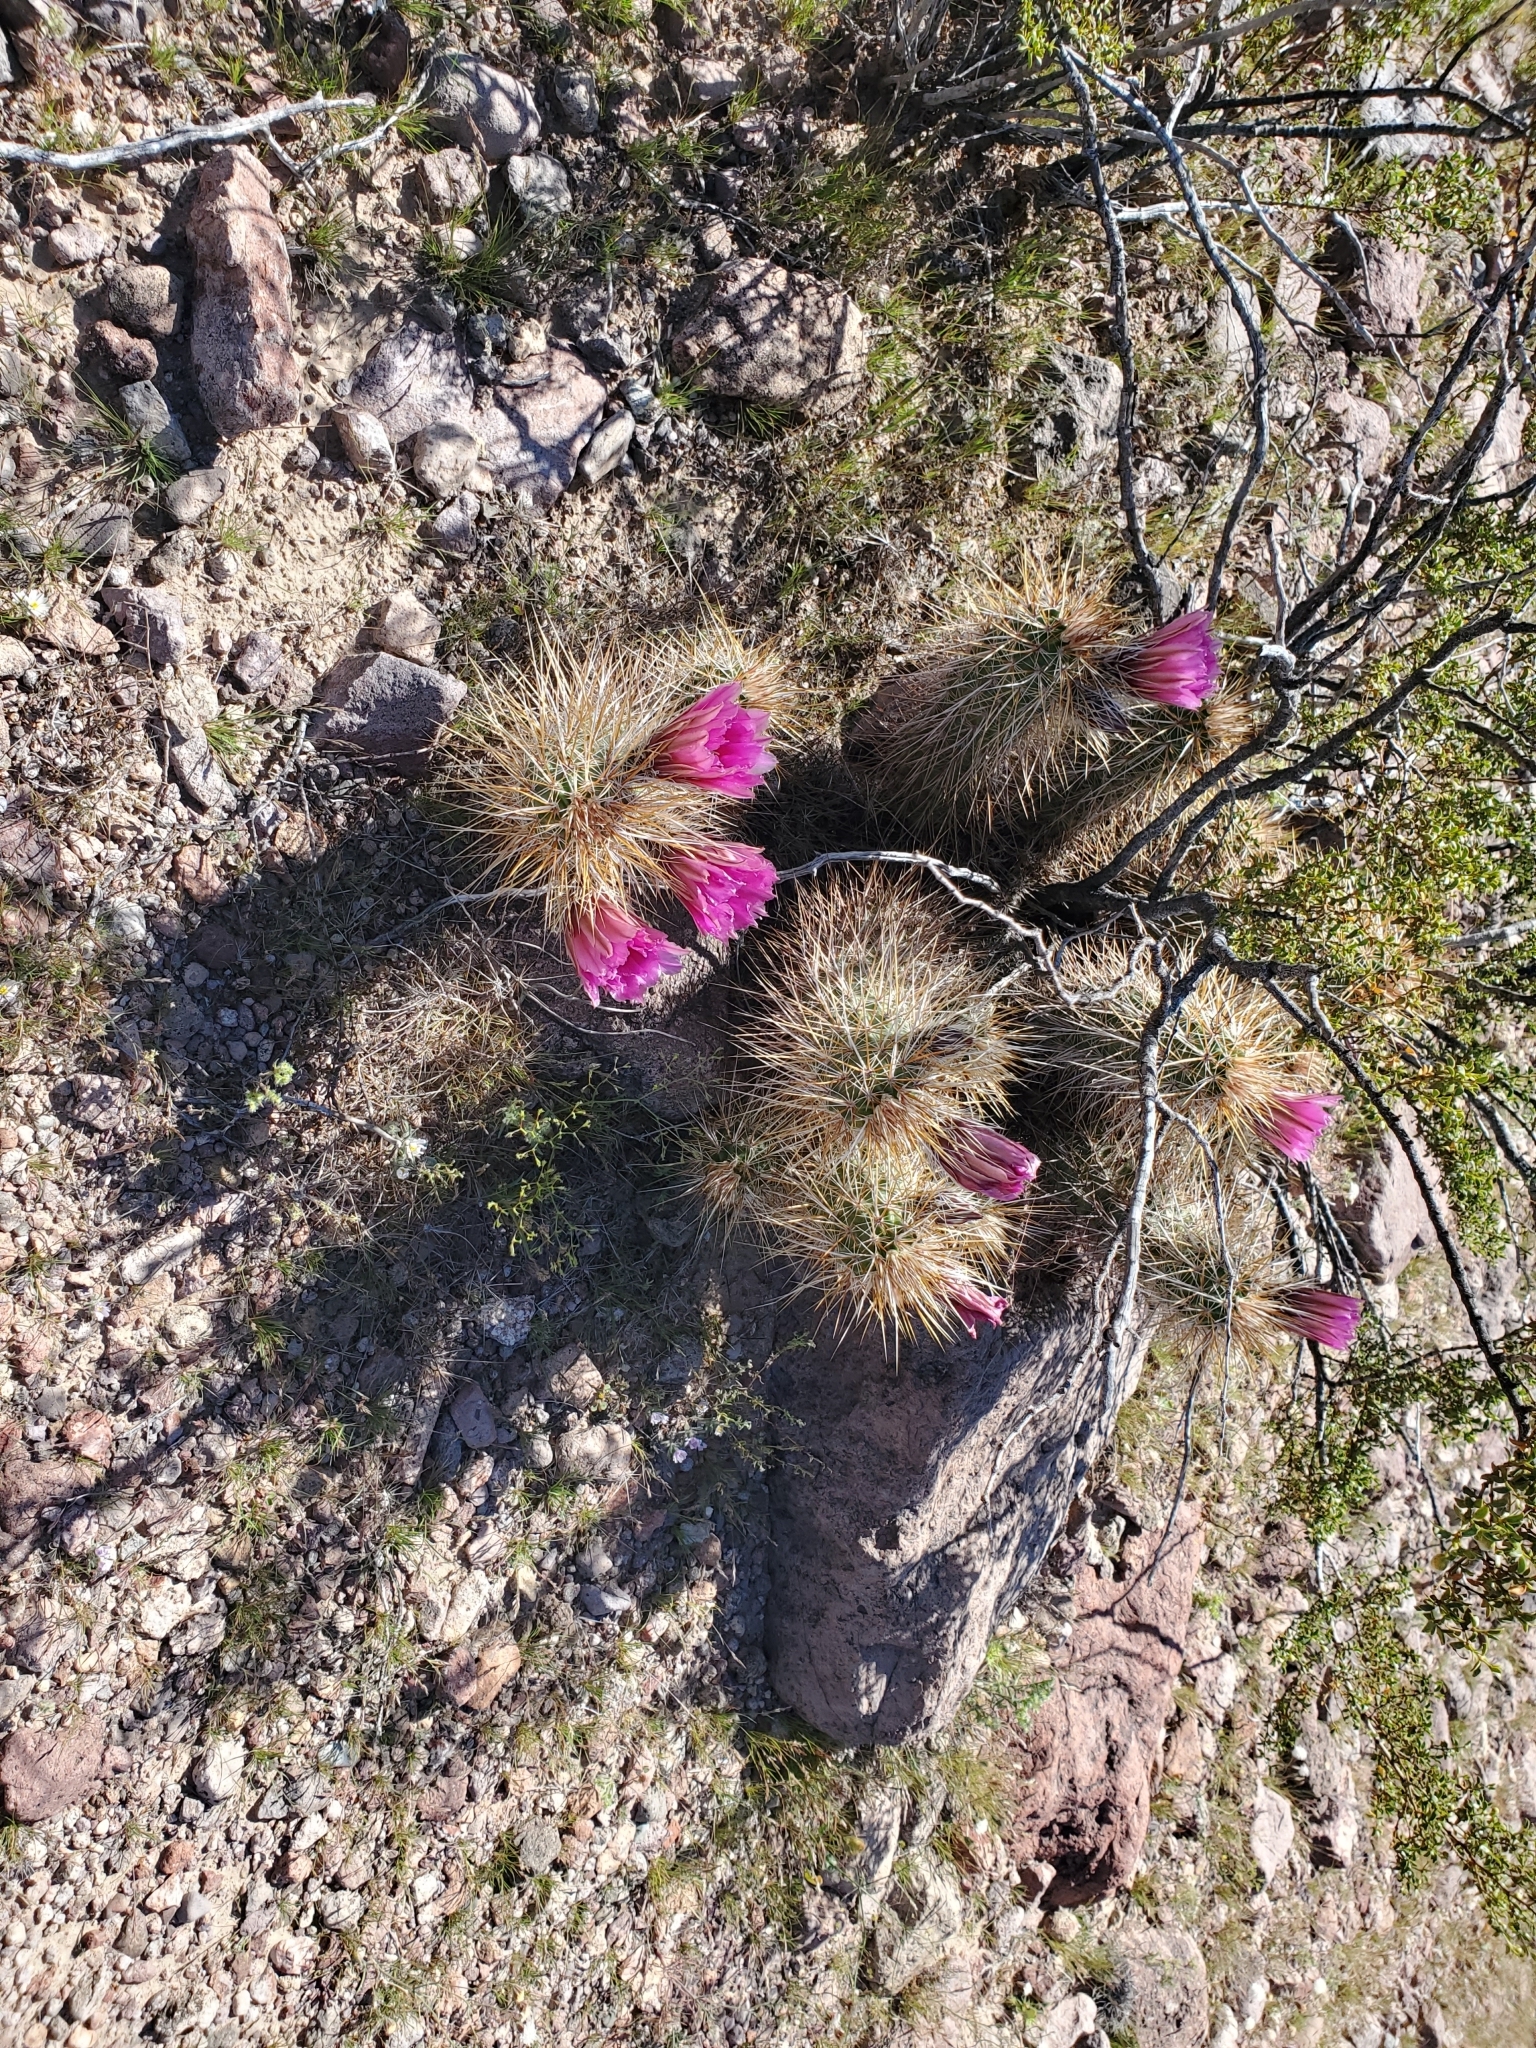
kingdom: Plantae
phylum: Tracheophyta
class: Magnoliopsida
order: Caryophyllales
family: Cactaceae
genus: Echinocereus
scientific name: Echinocereus engelmannii
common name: Engelmann's hedgehog cactus
